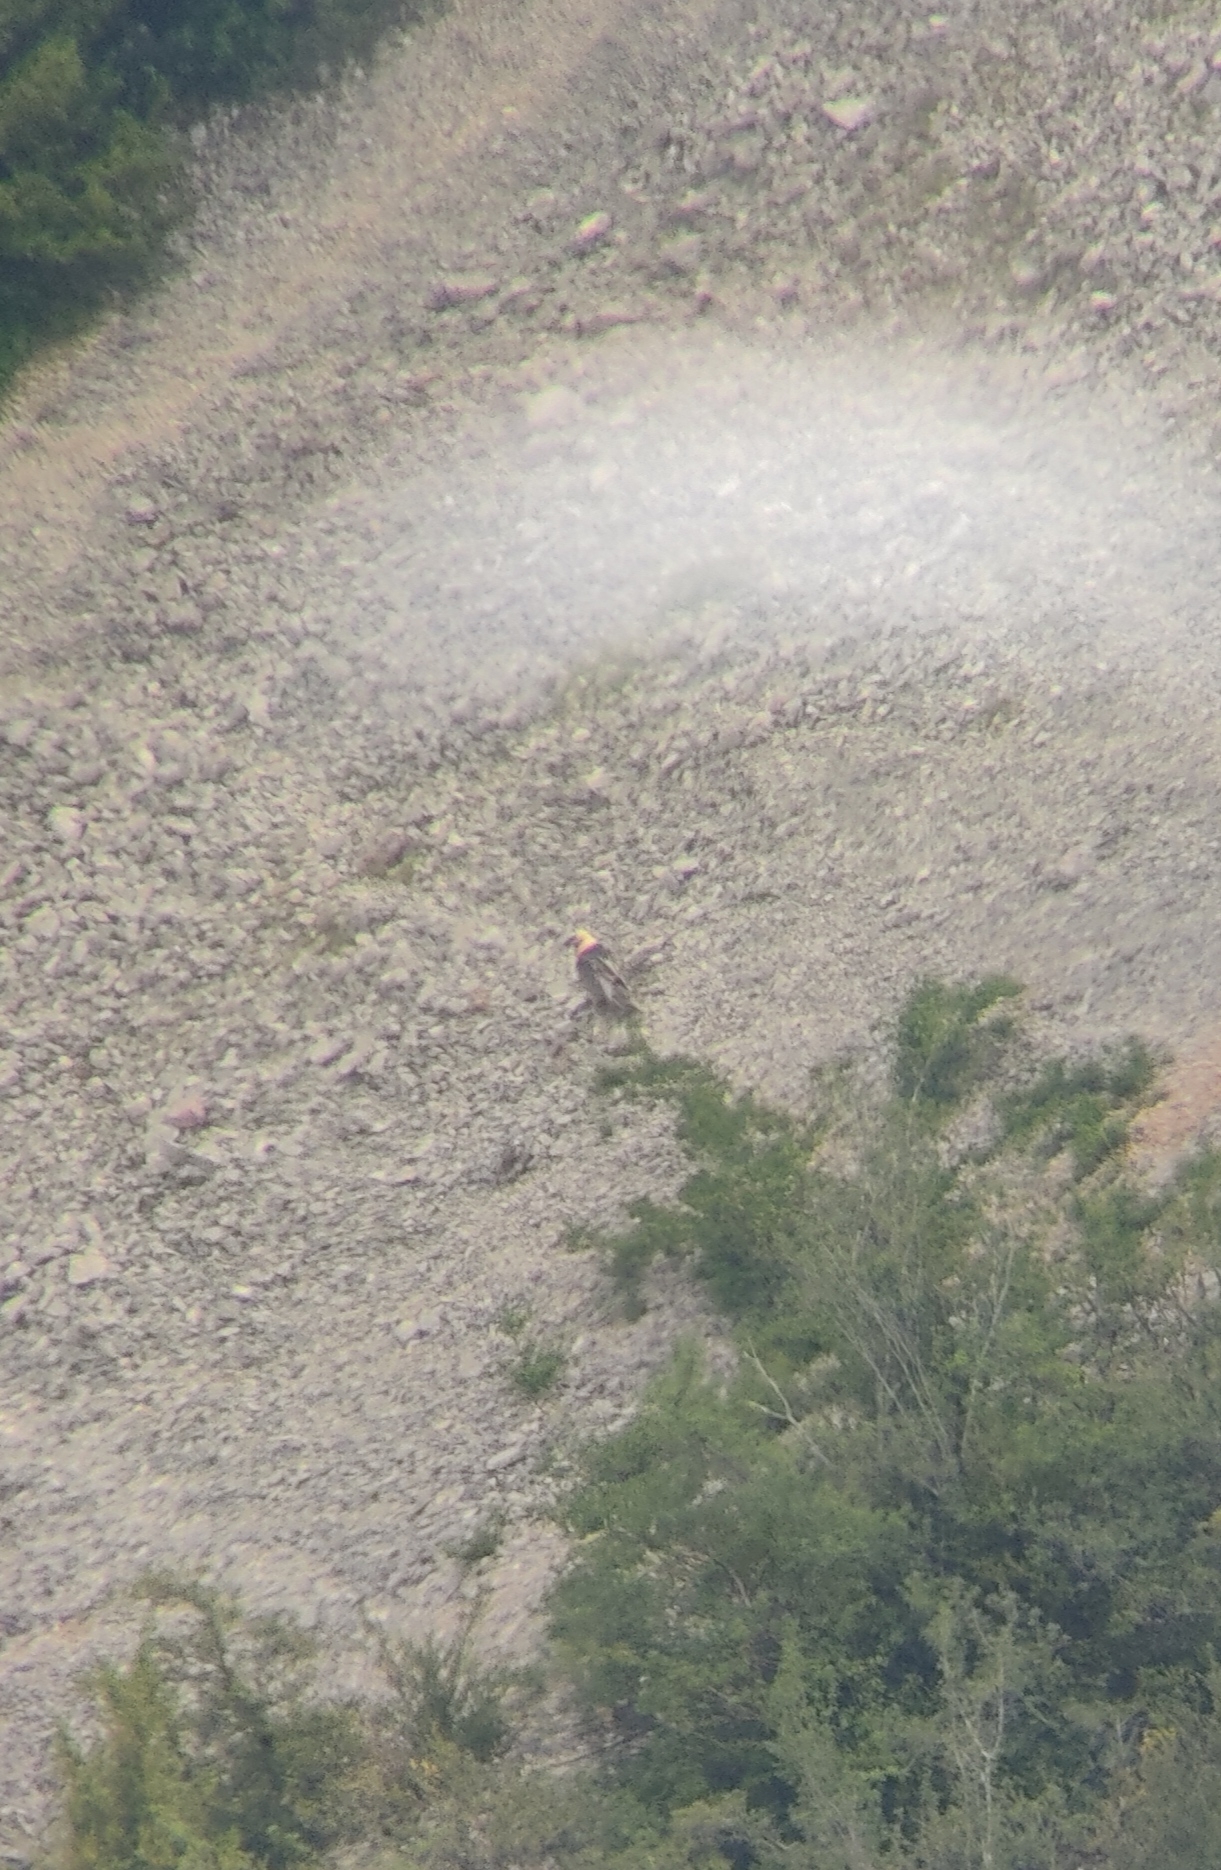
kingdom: Animalia
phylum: Chordata
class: Aves
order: Accipitriformes
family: Accipitridae
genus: Gypaetus
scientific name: Gypaetus barbatus
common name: Bearded vulture
